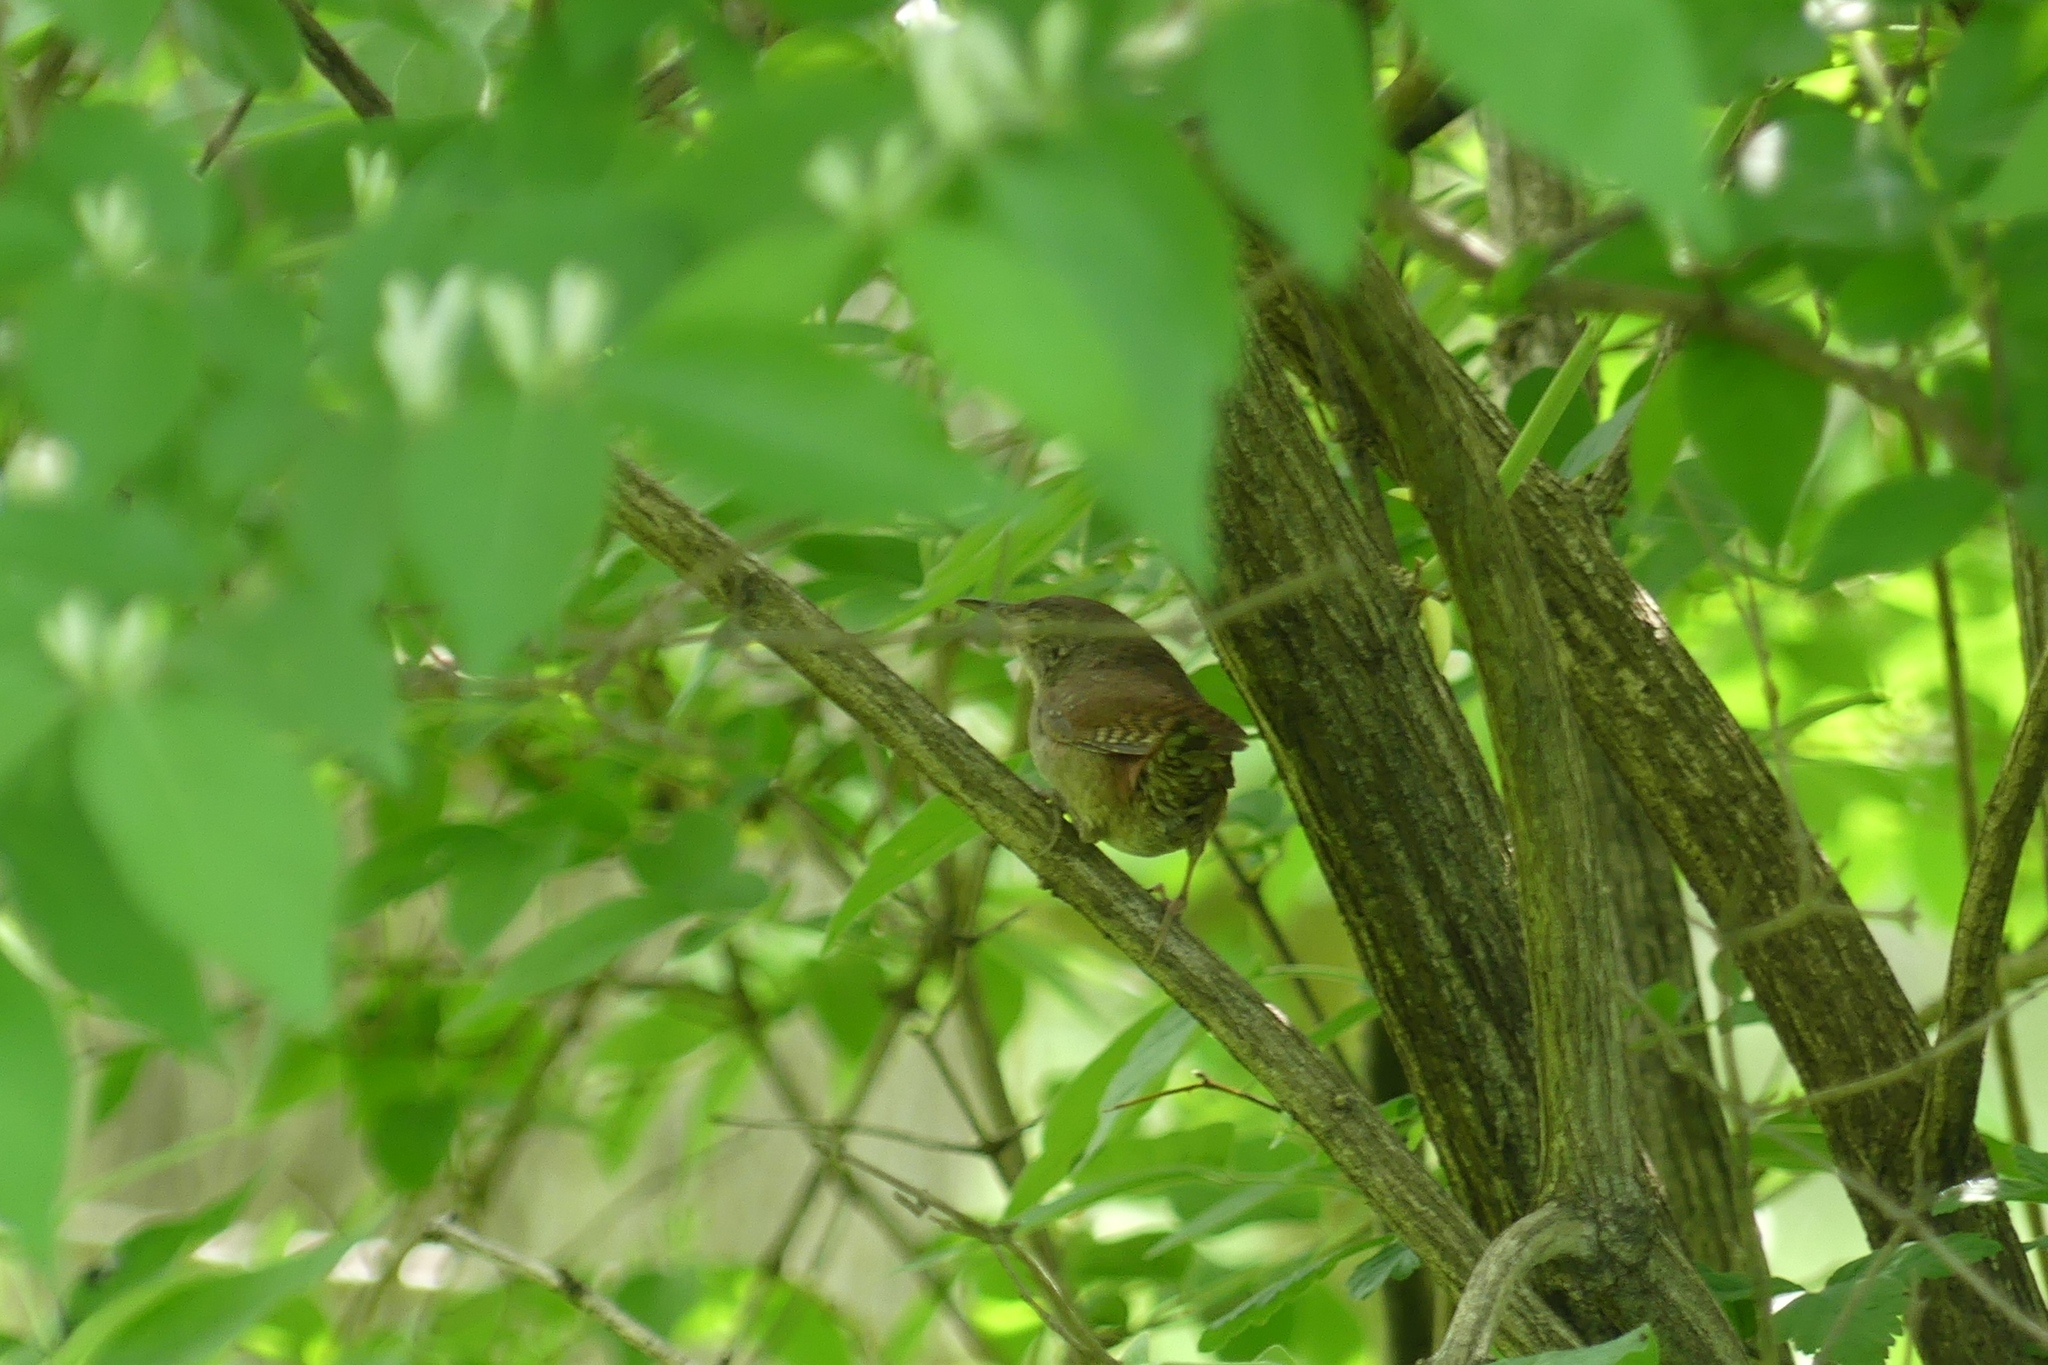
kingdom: Animalia
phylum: Chordata
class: Aves
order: Passeriformes
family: Troglodytidae
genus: Troglodytes
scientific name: Troglodytes aedon
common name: House wren
